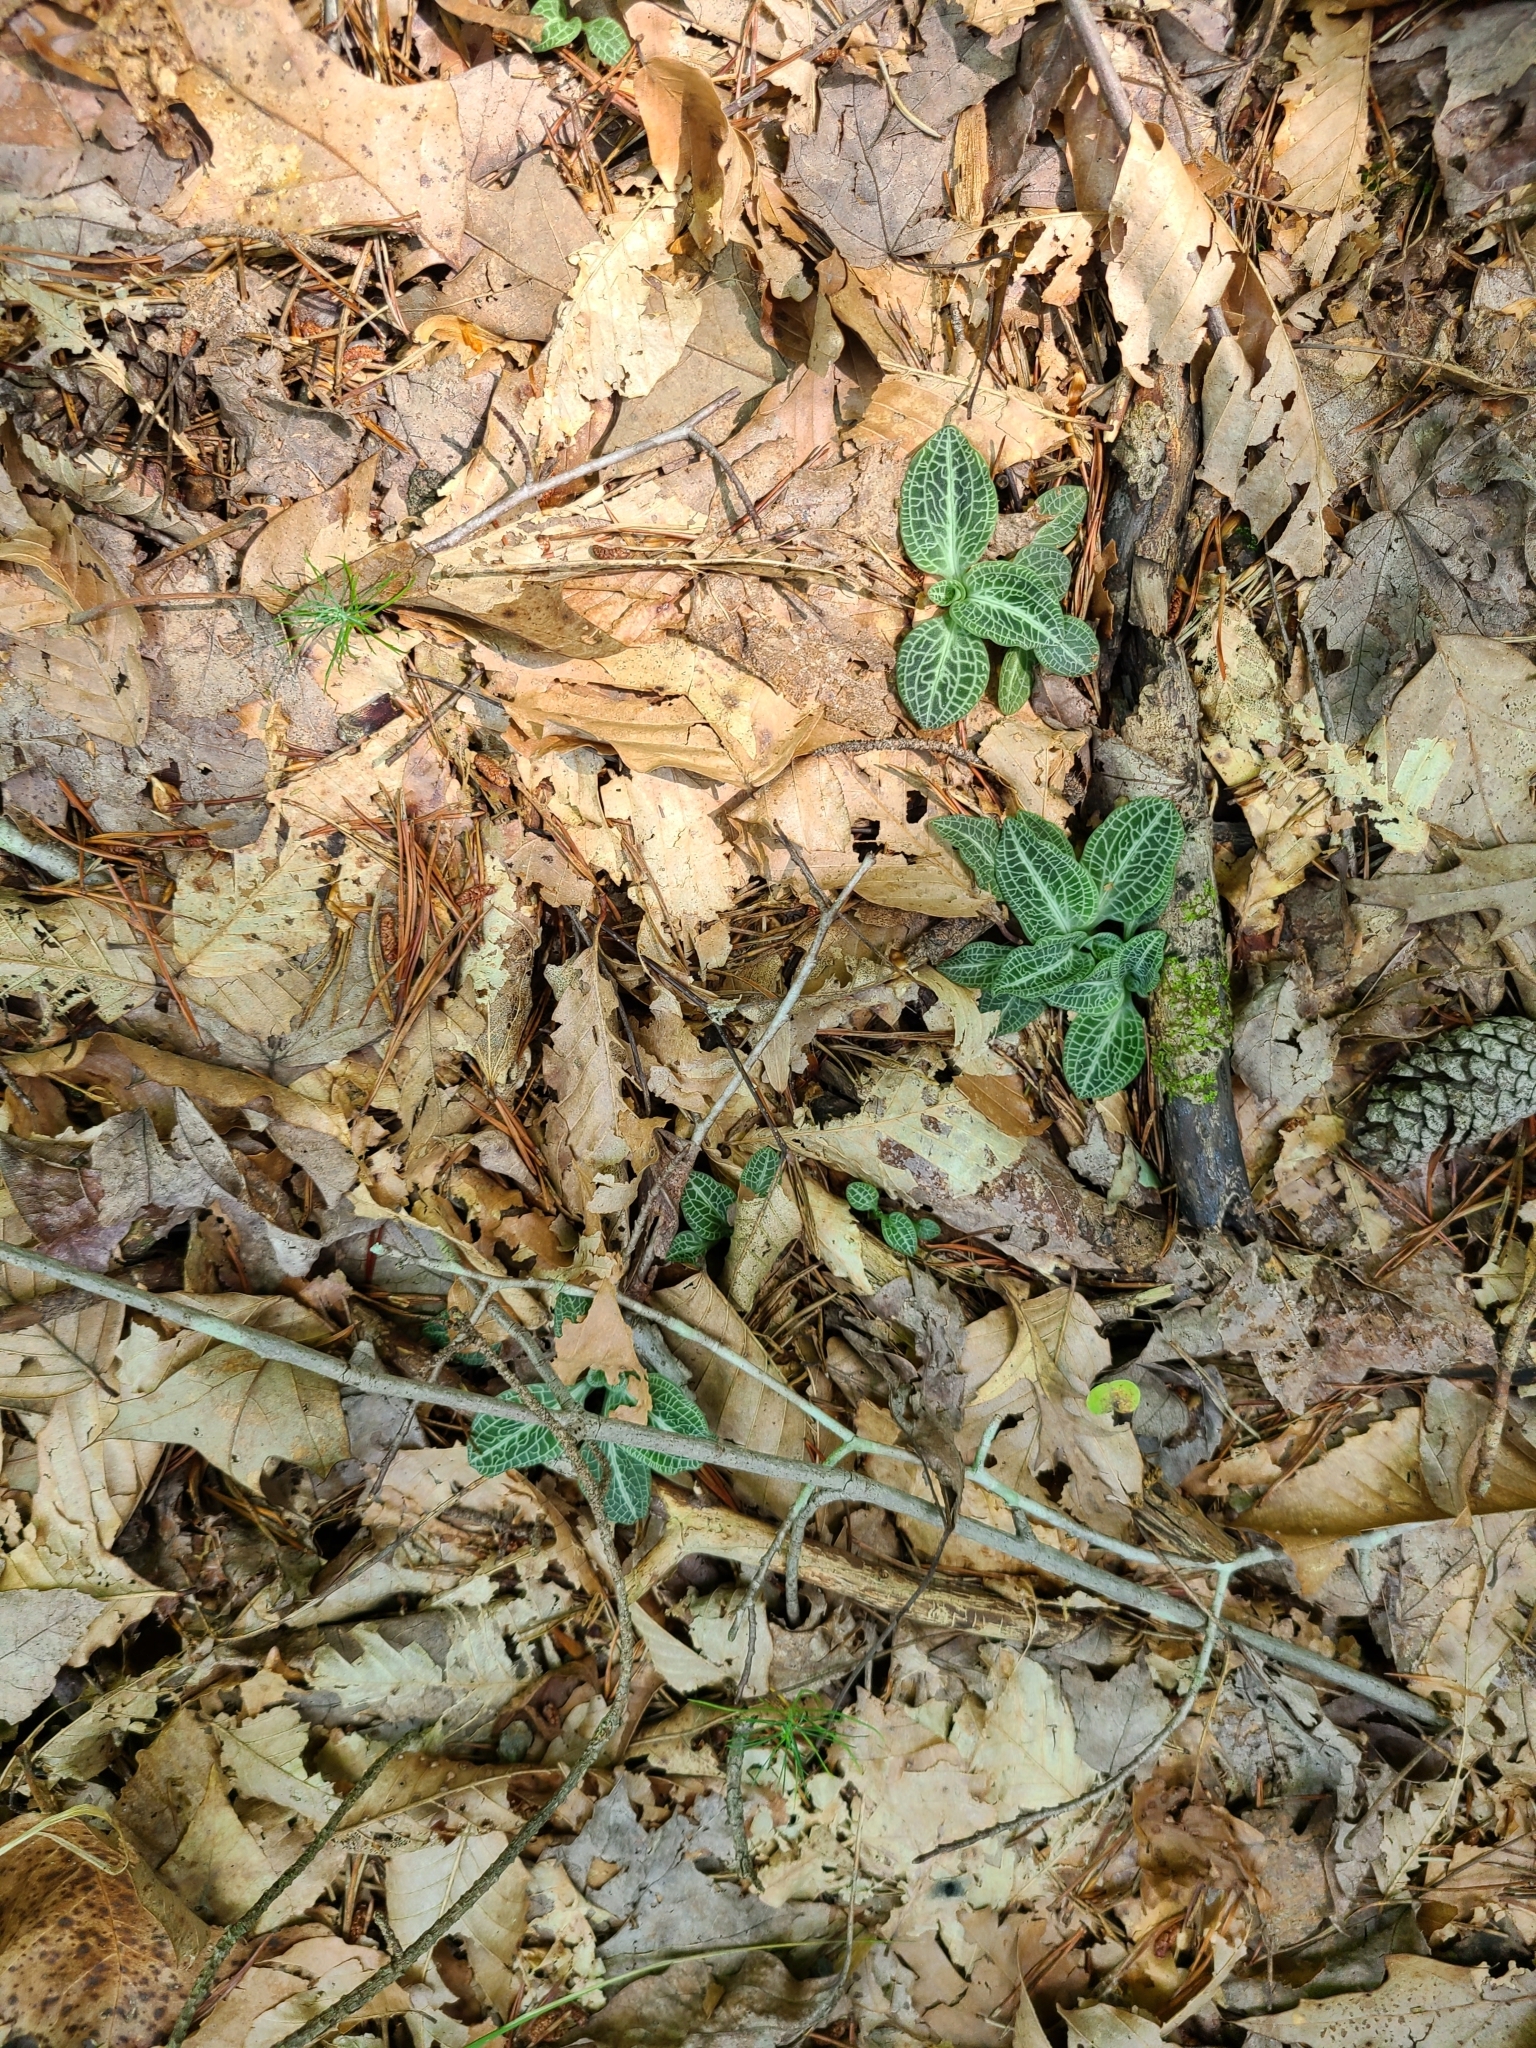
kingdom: Plantae
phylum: Tracheophyta
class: Liliopsida
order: Asparagales
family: Orchidaceae
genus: Goodyera
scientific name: Goodyera pubescens
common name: Downy rattlesnake-plantain
